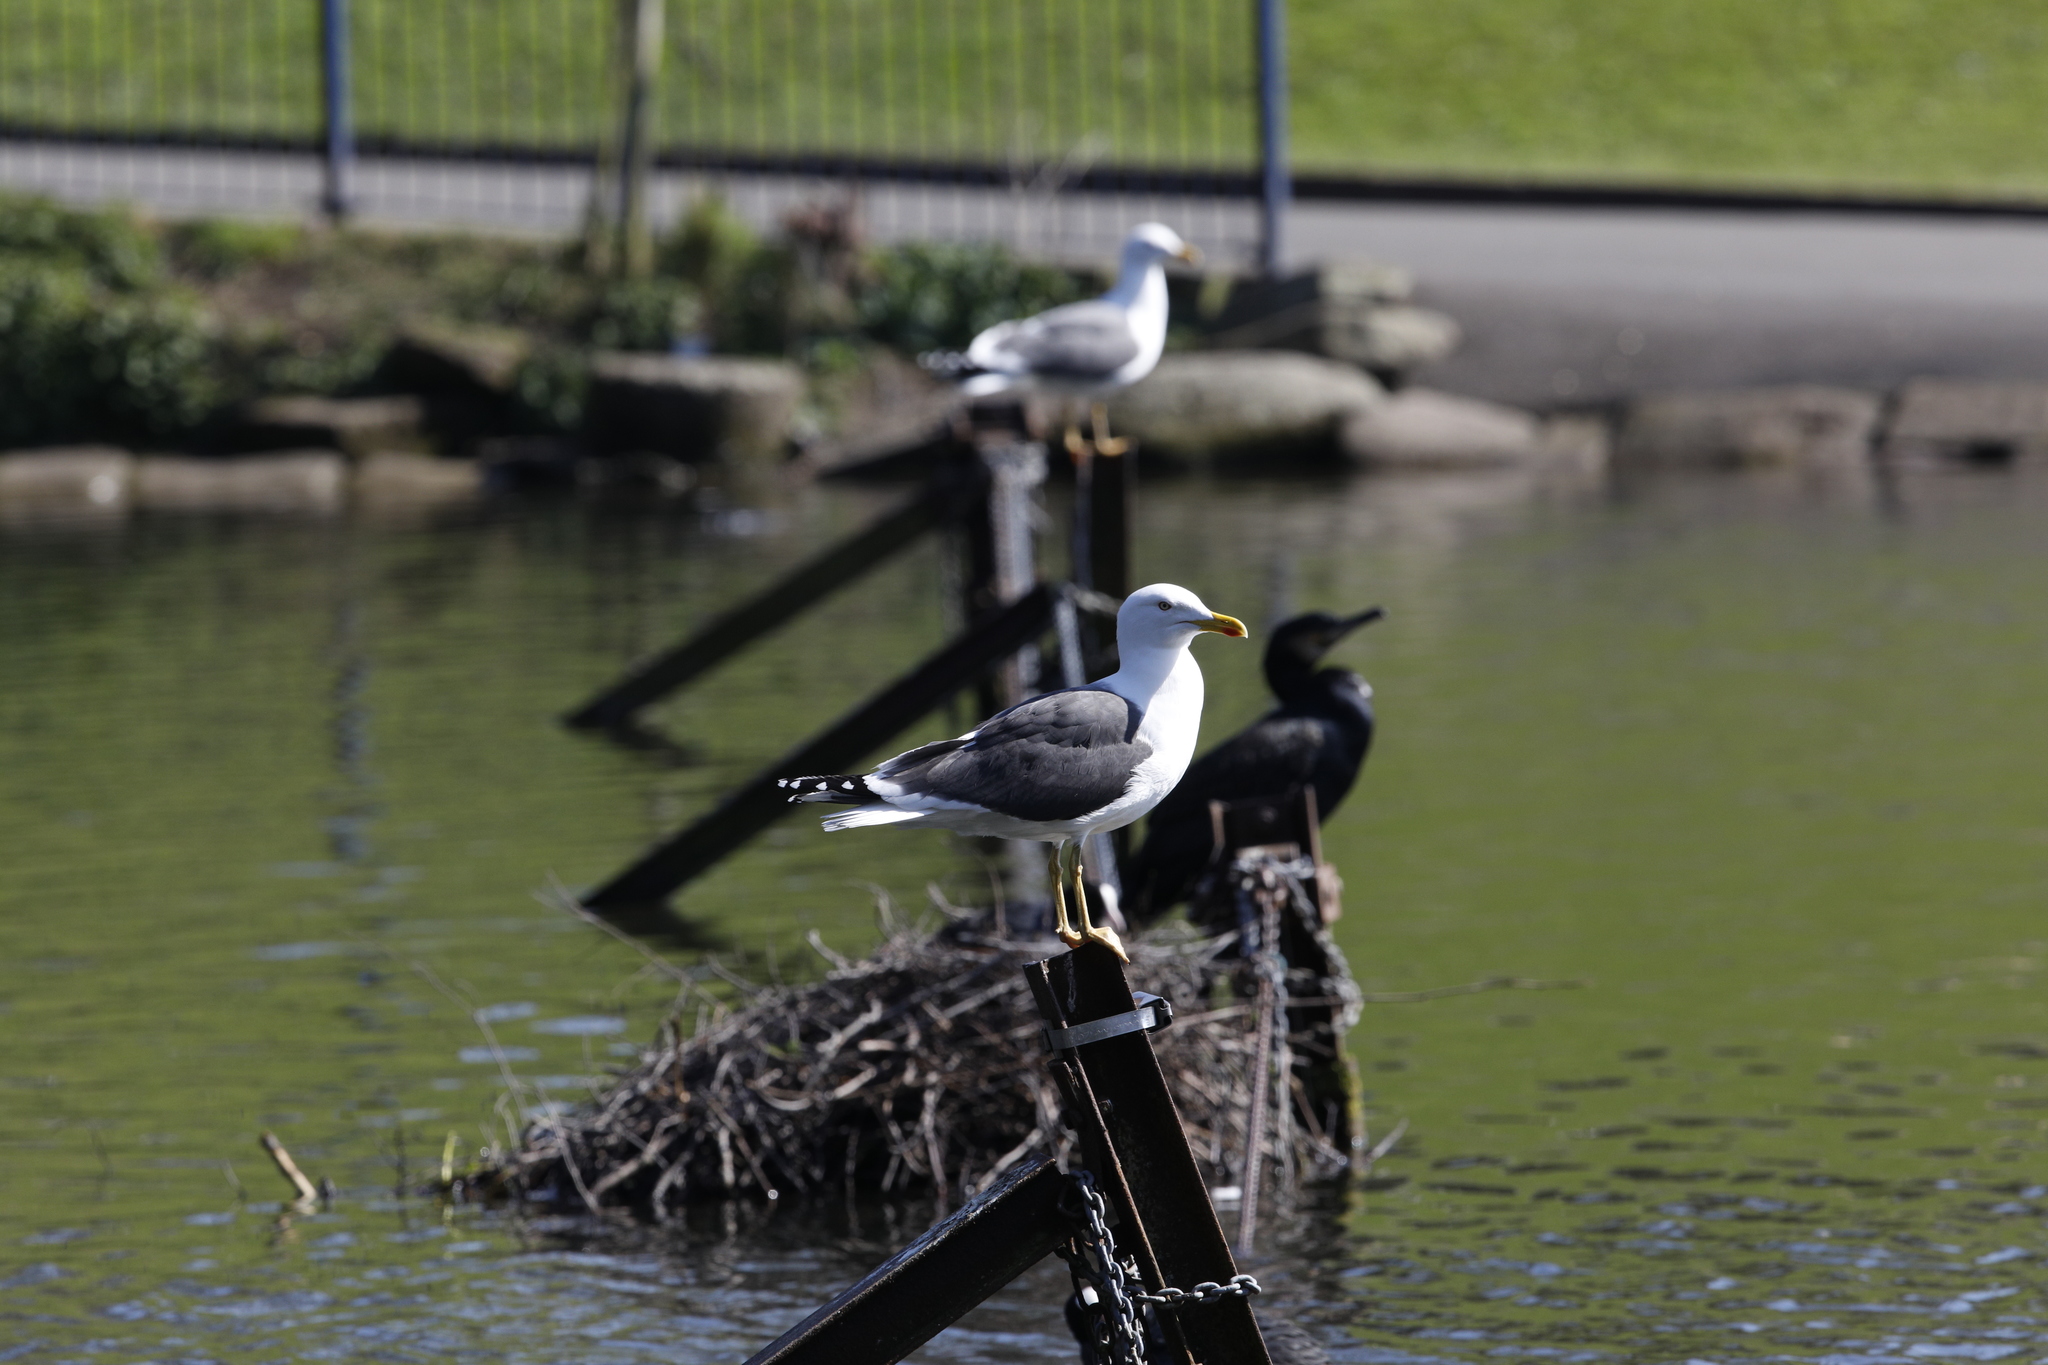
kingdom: Animalia
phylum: Chordata
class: Aves
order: Charadriiformes
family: Laridae
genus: Larus
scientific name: Larus fuscus
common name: Lesser black-backed gull
